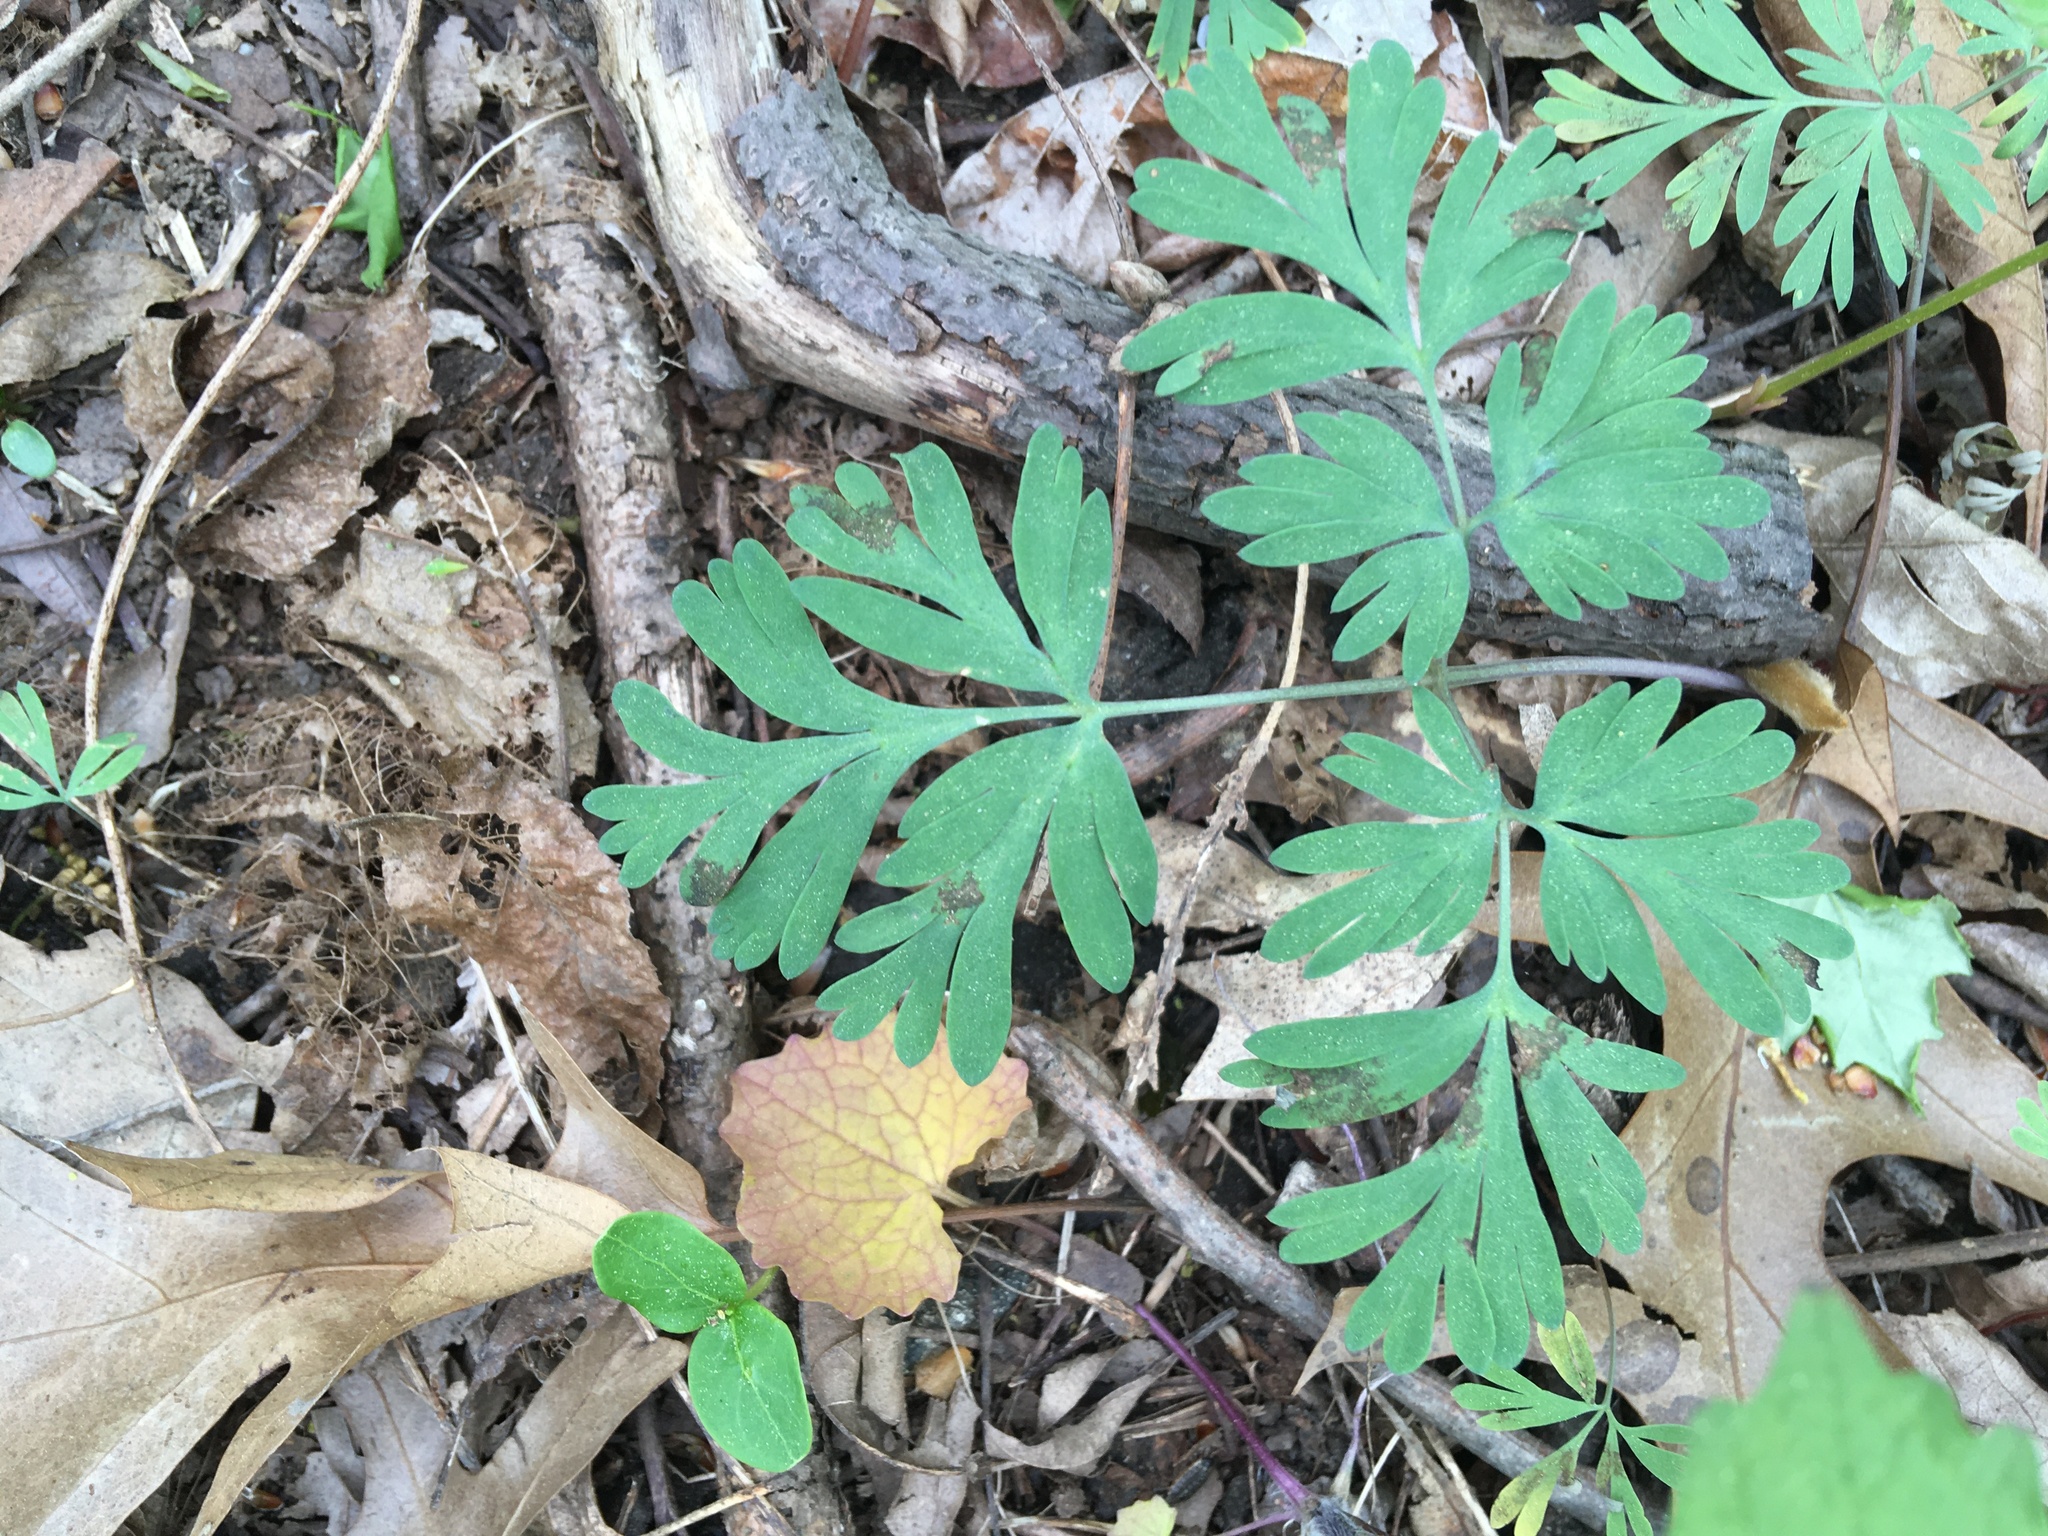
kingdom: Plantae
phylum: Tracheophyta
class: Magnoliopsida
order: Ranunculales
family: Papaveraceae
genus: Dicentra
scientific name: Dicentra cucullaria
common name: Dutchman's breeches
